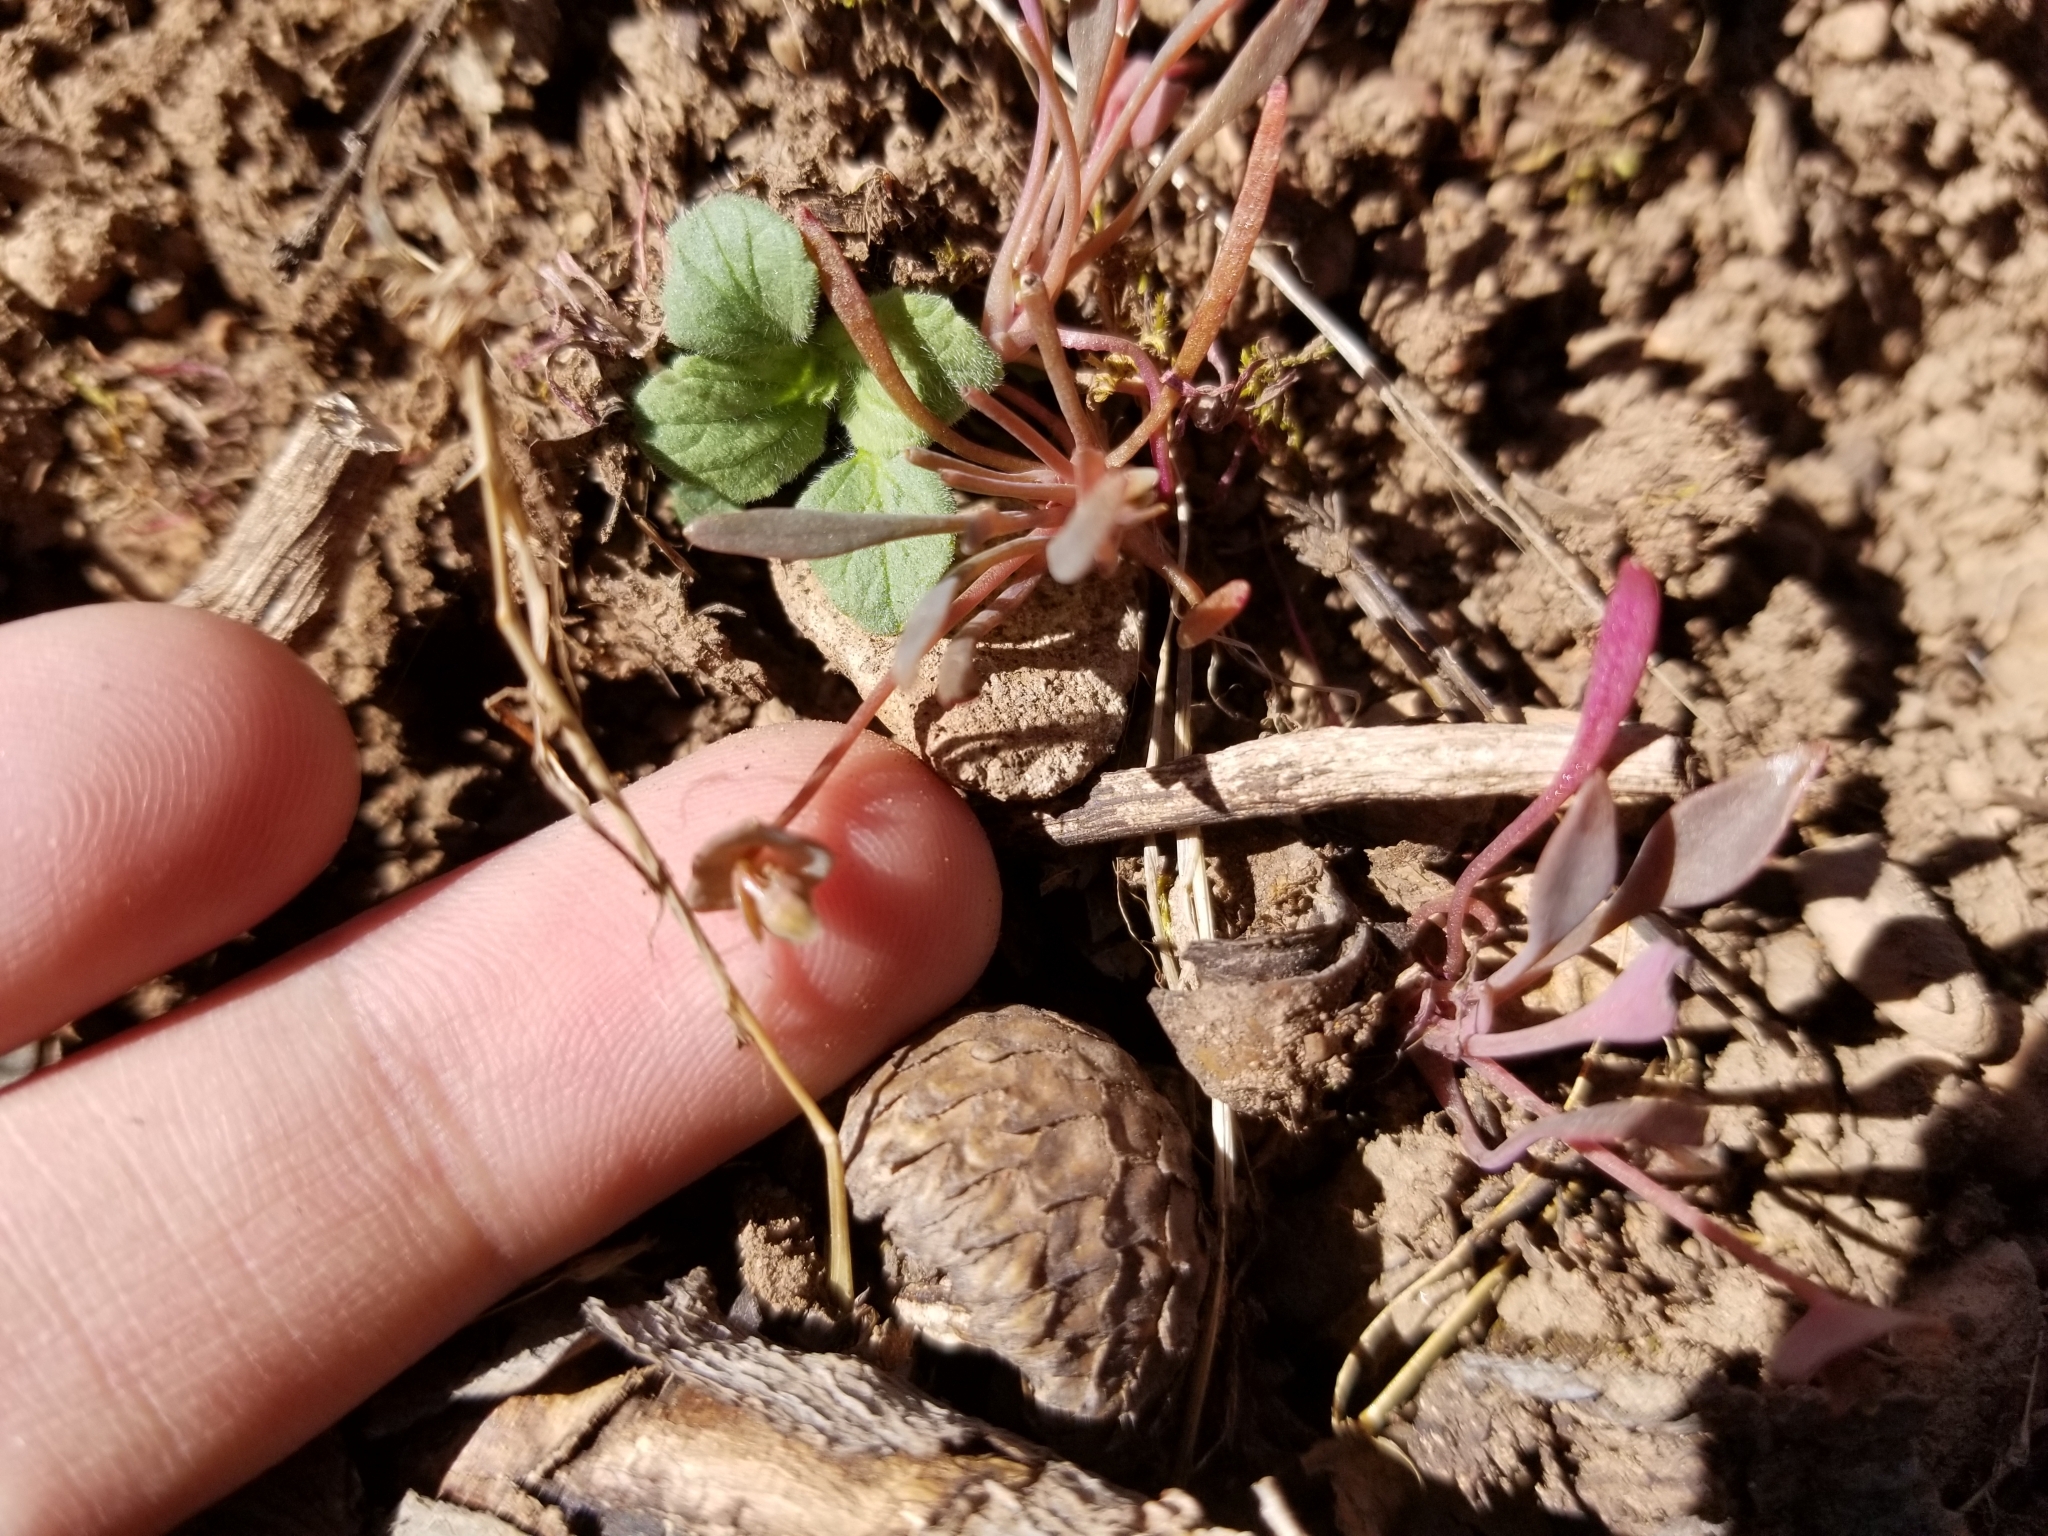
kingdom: Plantae
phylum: Tracheophyta
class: Magnoliopsida
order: Caryophyllales
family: Montiaceae
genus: Claytonia
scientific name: Claytonia parviflora
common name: Indian-lettuce
